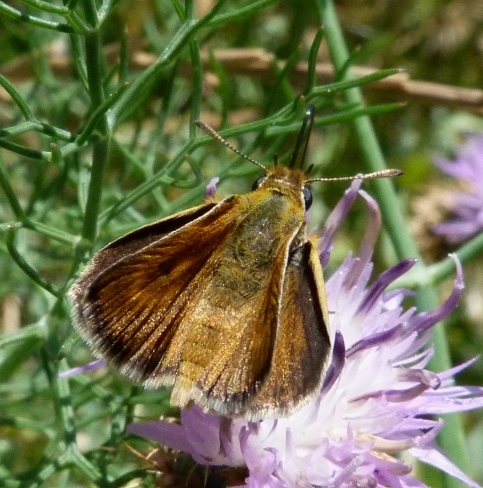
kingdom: Animalia
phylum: Arthropoda
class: Insecta
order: Lepidoptera
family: Hesperiidae
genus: Thymelicus
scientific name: Thymelicus acteon
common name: Lulworth skipper
